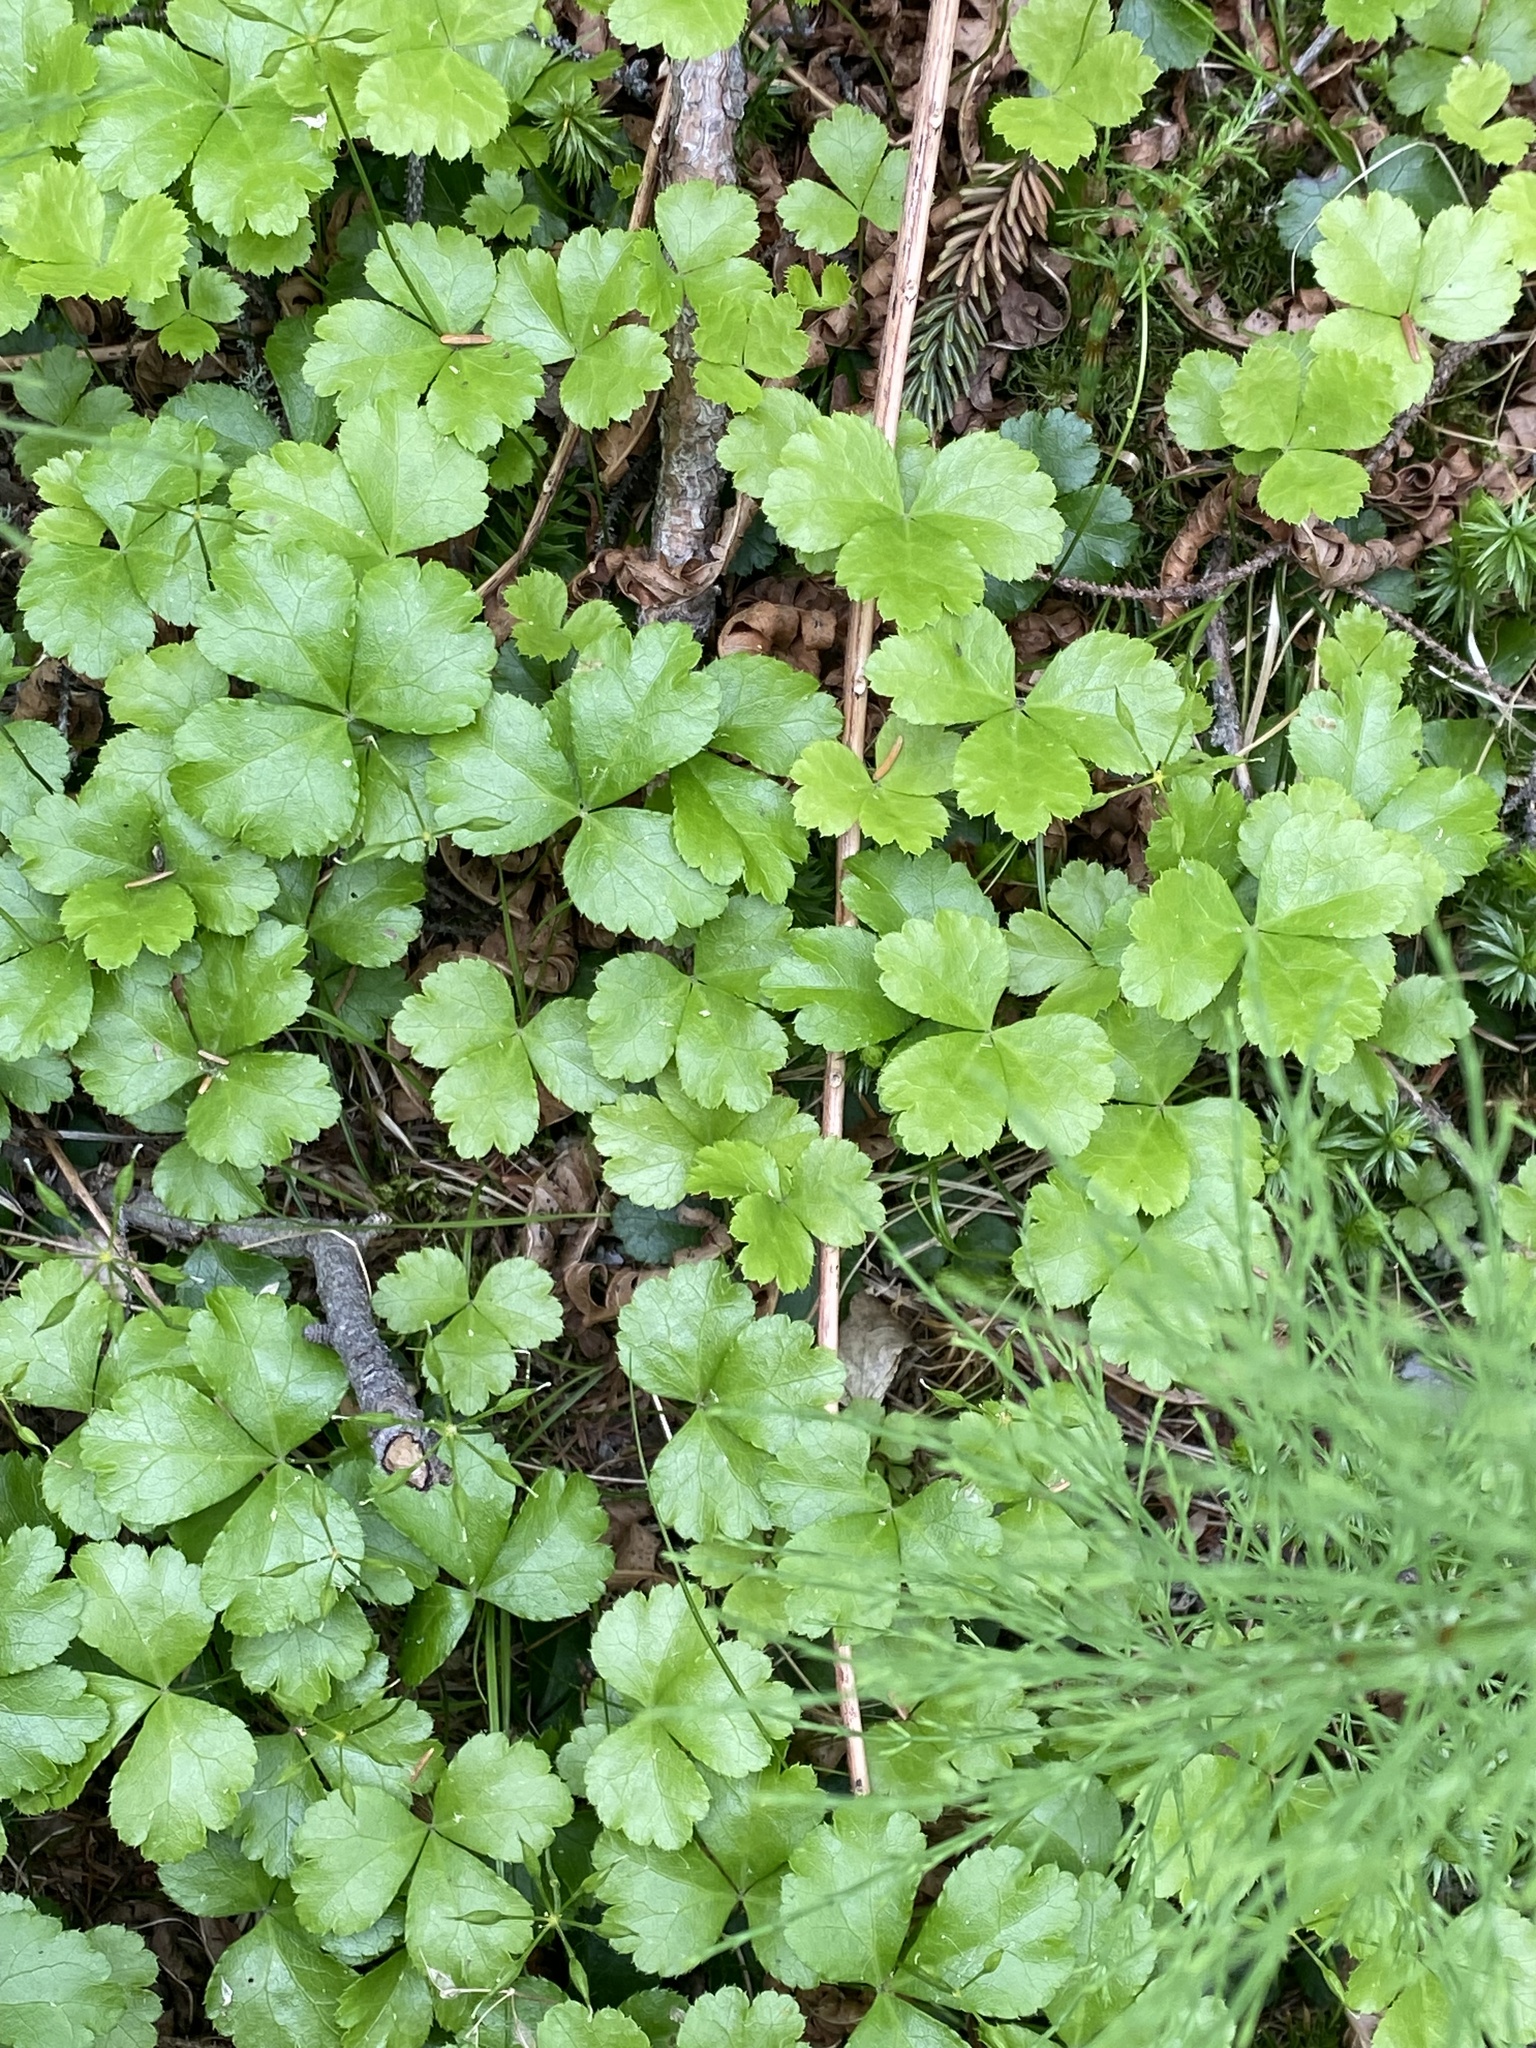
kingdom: Plantae
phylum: Tracheophyta
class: Magnoliopsida
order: Ranunculales
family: Ranunculaceae
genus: Coptis
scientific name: Coptis trifolia
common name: Canker-root
